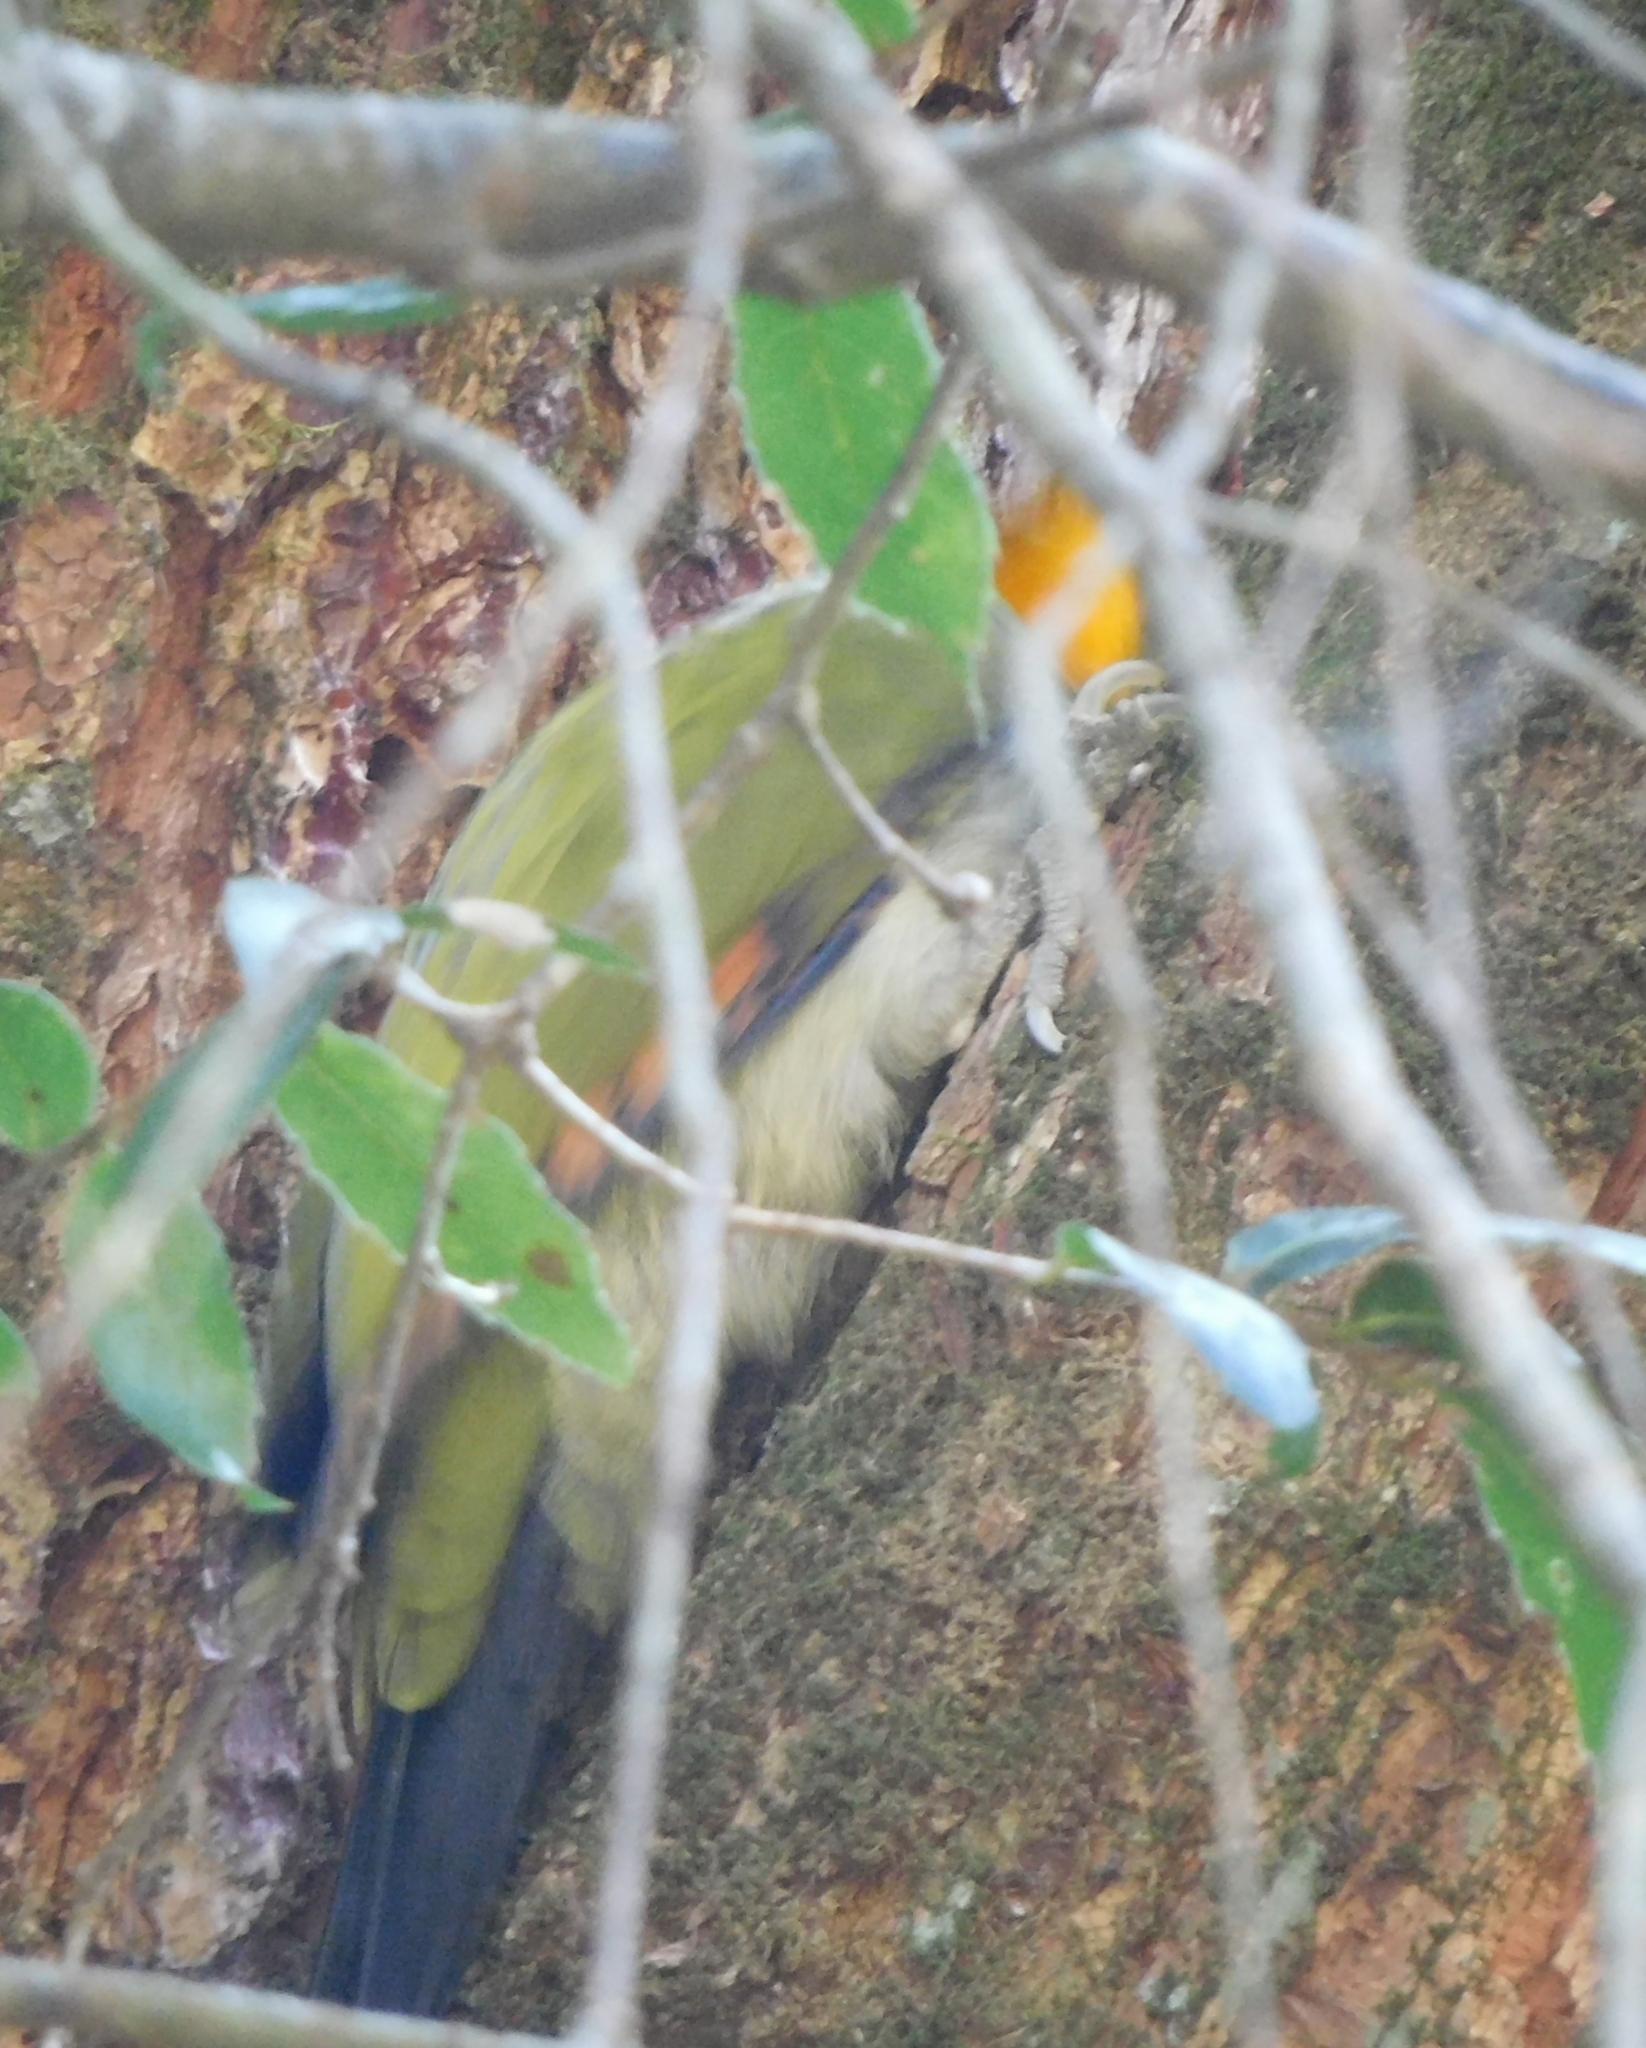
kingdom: Animalia
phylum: Chordata
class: Aves
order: Piciformes
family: Picidae
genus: Chrysophlegma
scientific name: Chrysophlegma flavinucha
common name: Greater yellownape
